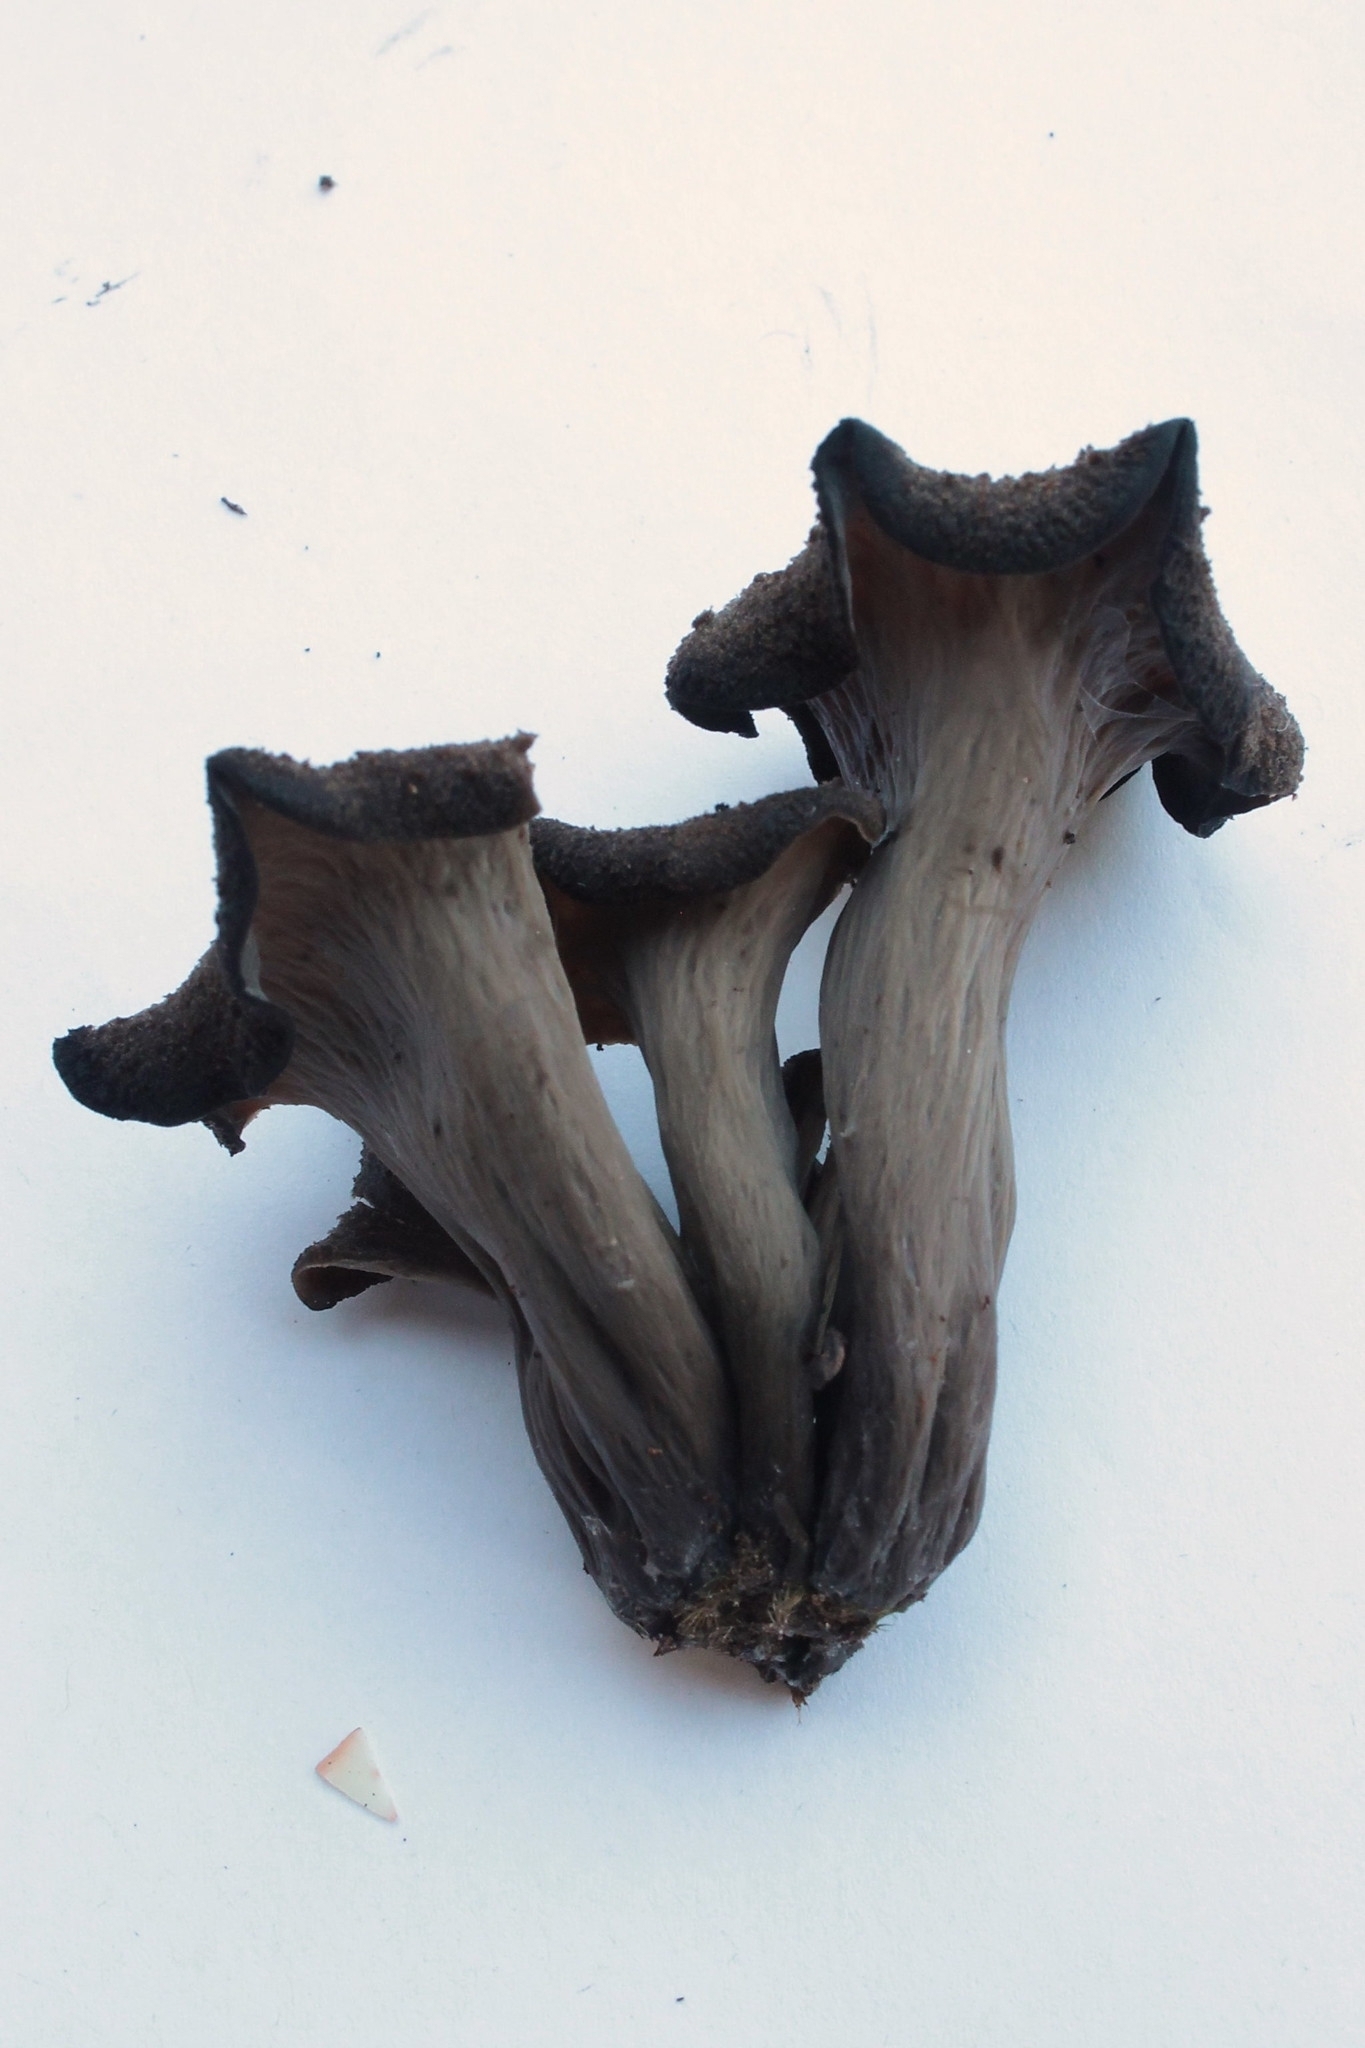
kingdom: Fungi
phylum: Basidiomycota
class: Agaricomycetes
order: Cantharellales
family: Hydnaceae
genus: Craterellus
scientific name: Craterellus cornucopioides
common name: Horn of plenty
